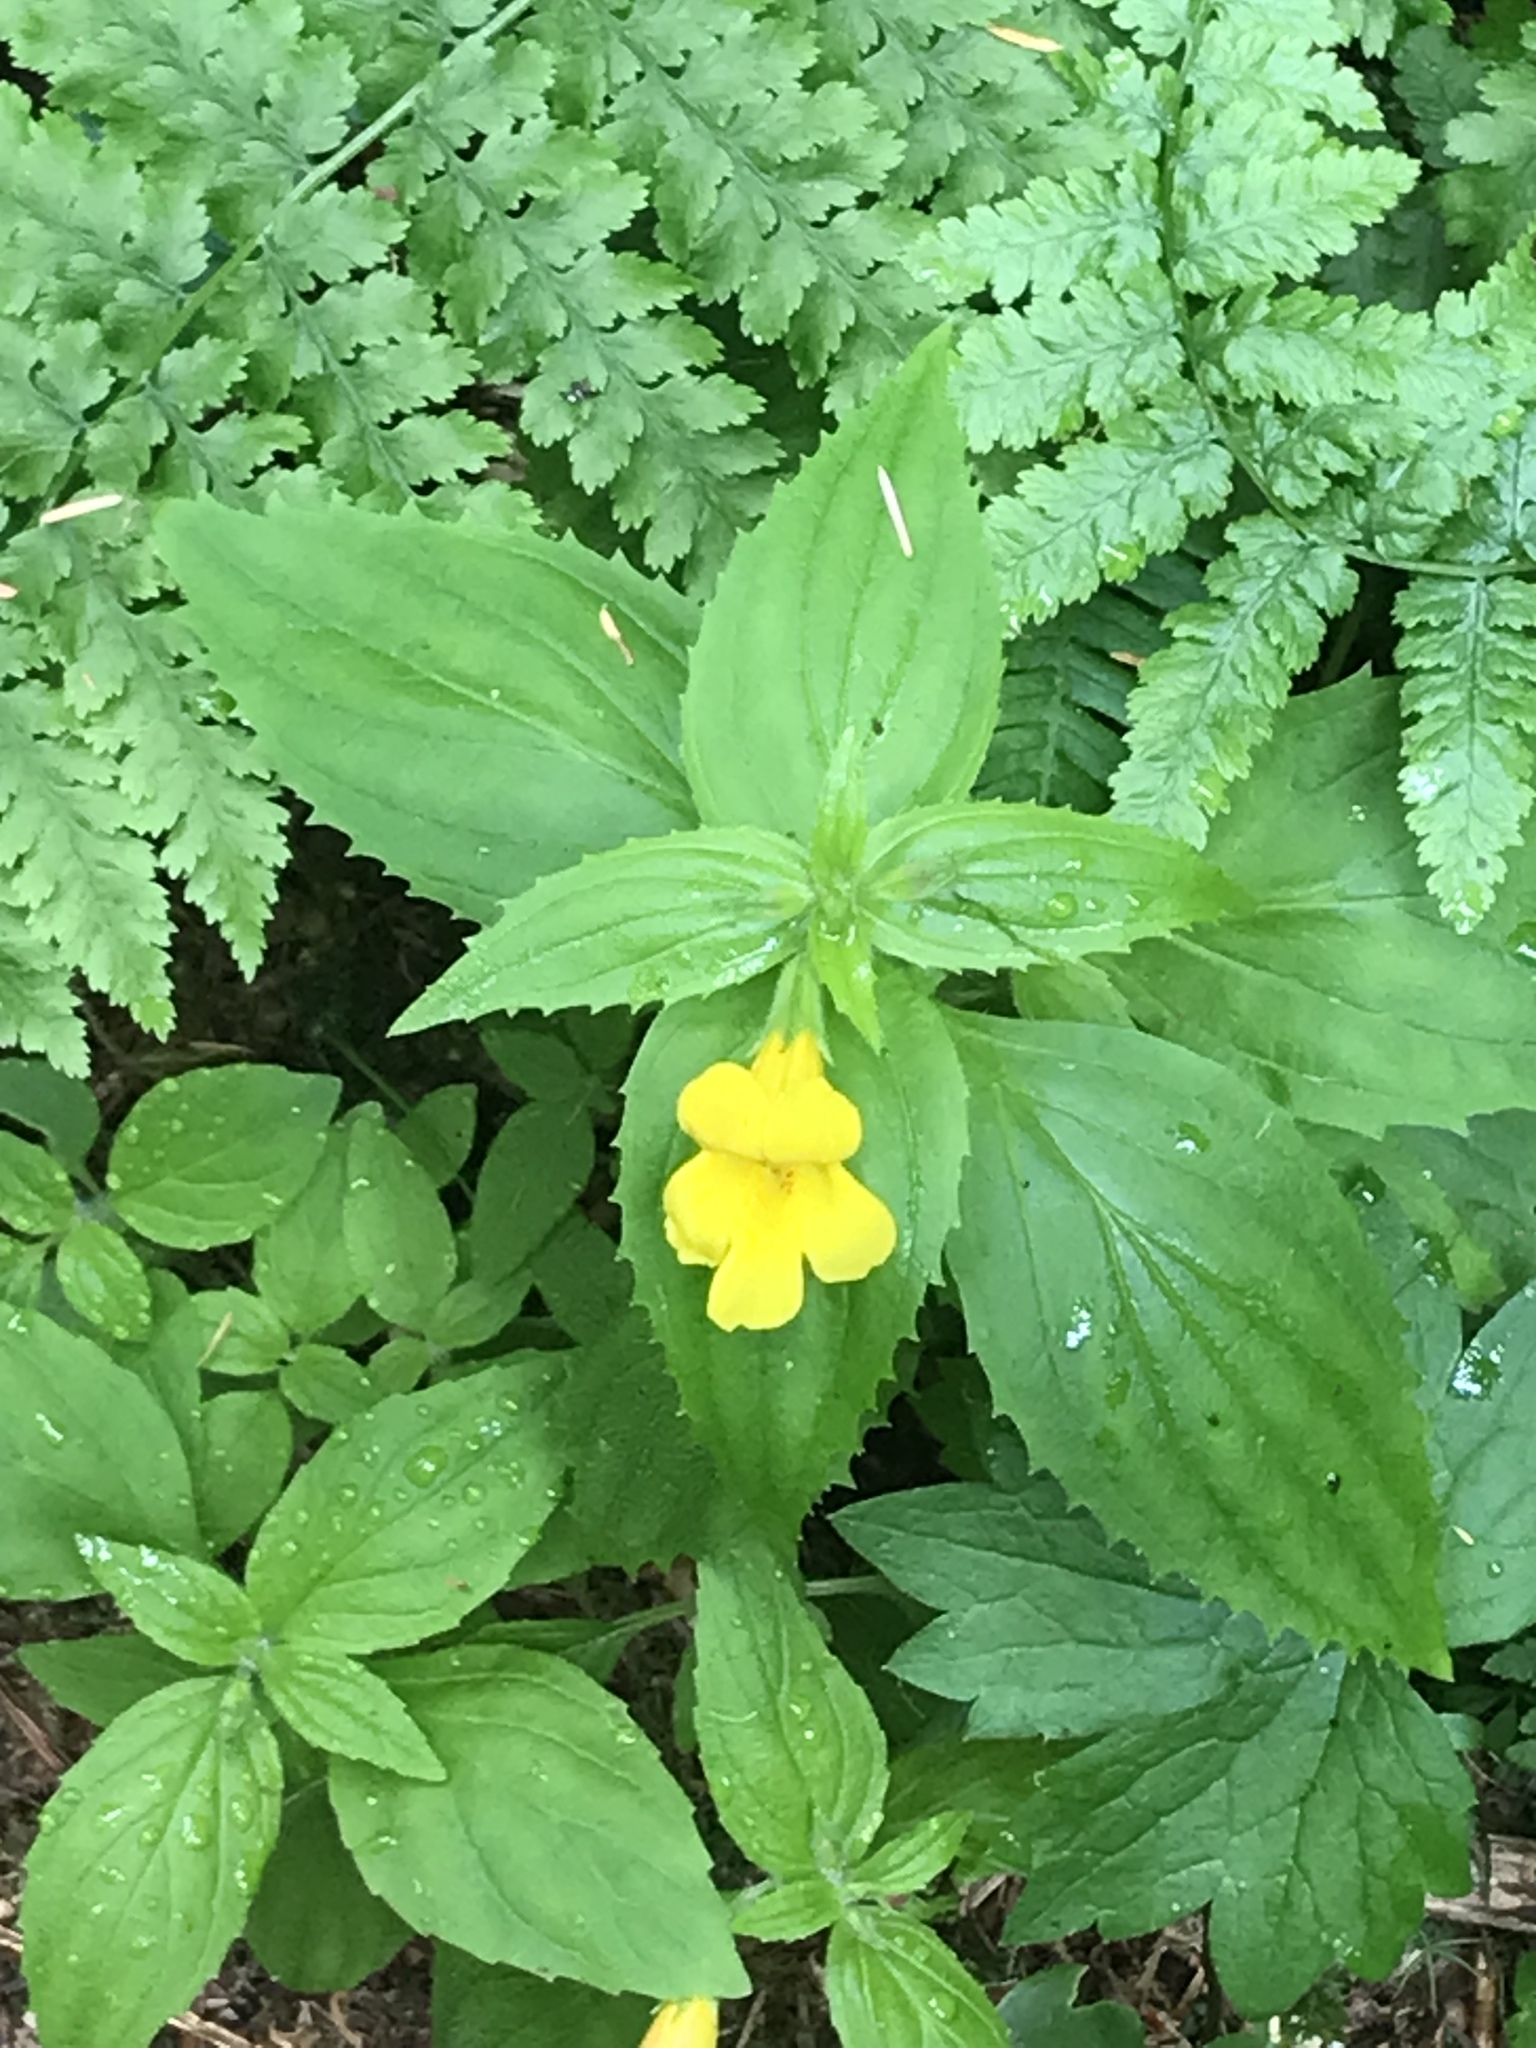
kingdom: Plantae
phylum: Tracheophyta
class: Magnoliopsida
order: Lamiales
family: Phrymaceae
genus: Erythranthe
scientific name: Erythranthe dentata
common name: Coastal monkeyflower
